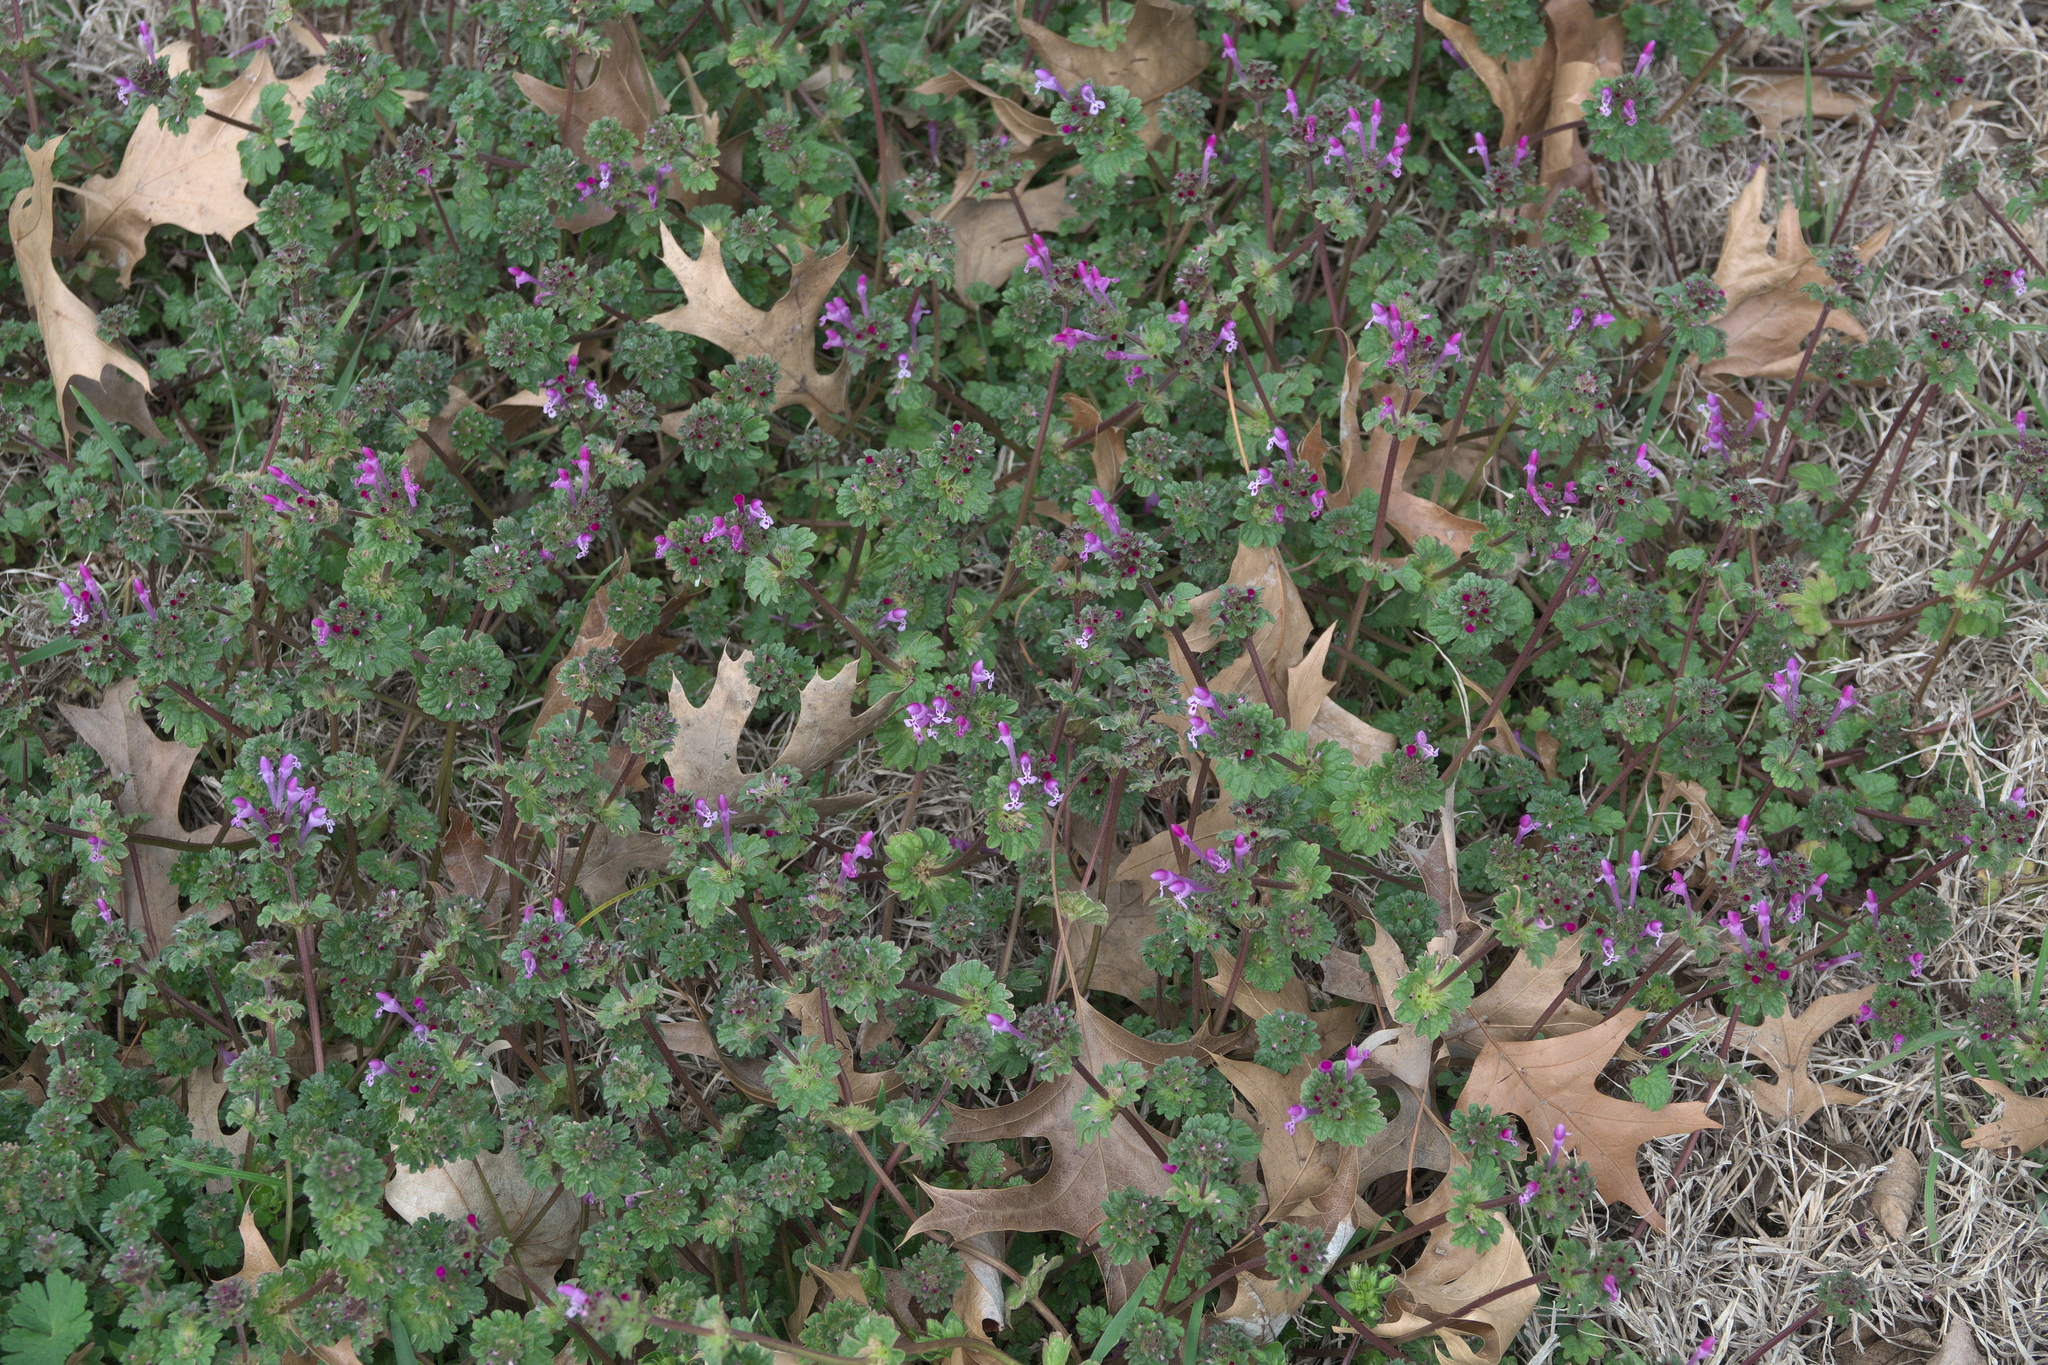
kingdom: Plantae
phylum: Tracheophyta
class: Magnoliopsida
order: Lamiales
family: Lamiaceae
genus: Lamium
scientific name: Lamium amplexicaule
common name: Henbit dead-nettle
